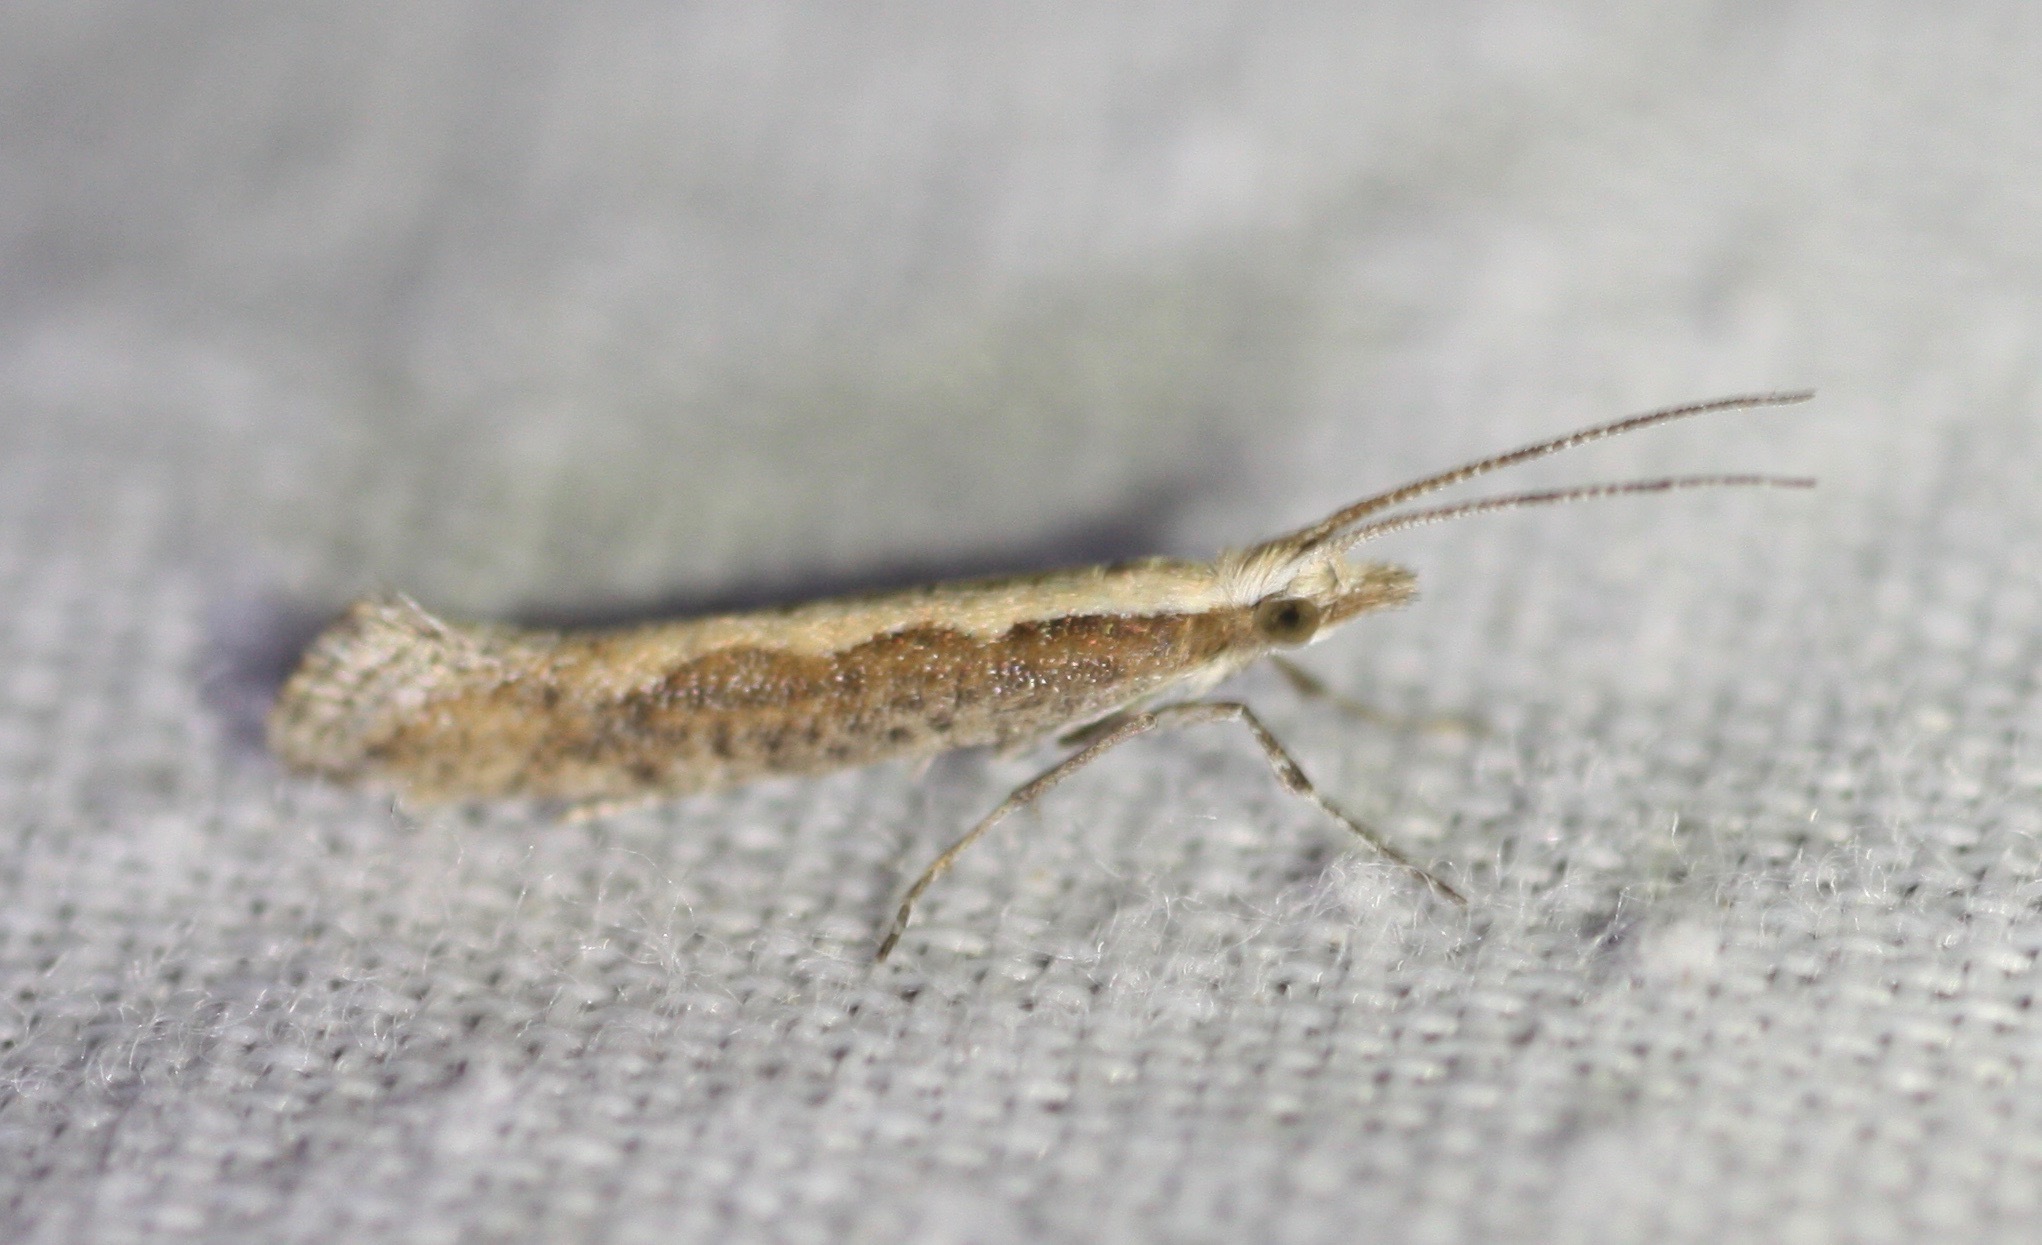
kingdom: Animalia
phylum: Arthropoda
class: Insecta
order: Lepidoptera
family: Plutellidae
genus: Plutella
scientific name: Plutella xylostella
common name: Diamond-back moth
